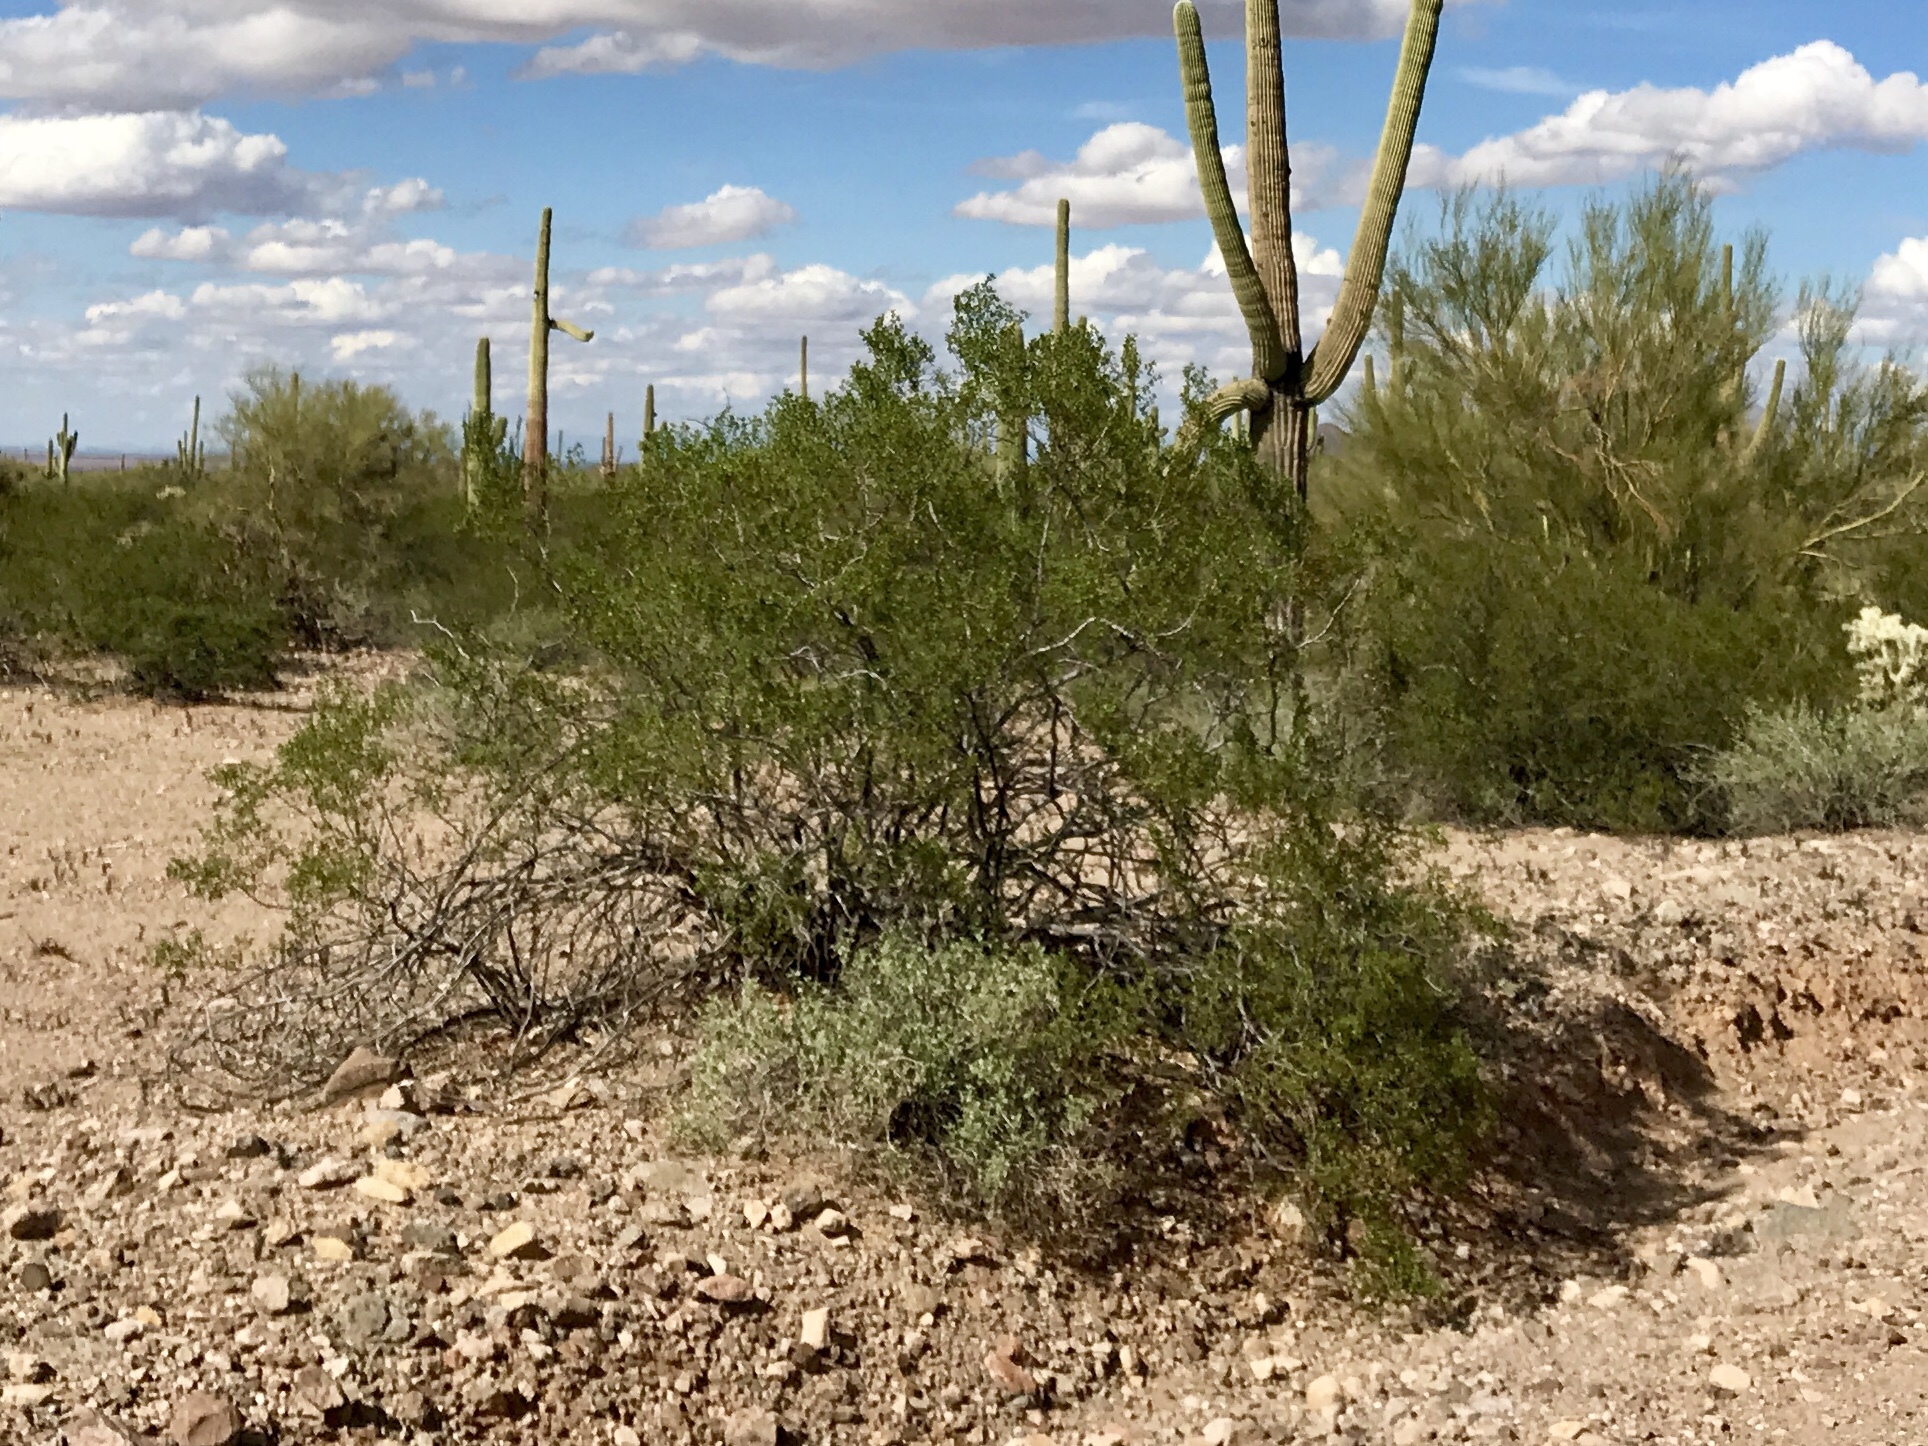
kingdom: Plantae
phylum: Tracheophyta
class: Magnoliopsida
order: Zygophyllales
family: Zygophyllaceae
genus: Larrea
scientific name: Larrea tridentata
